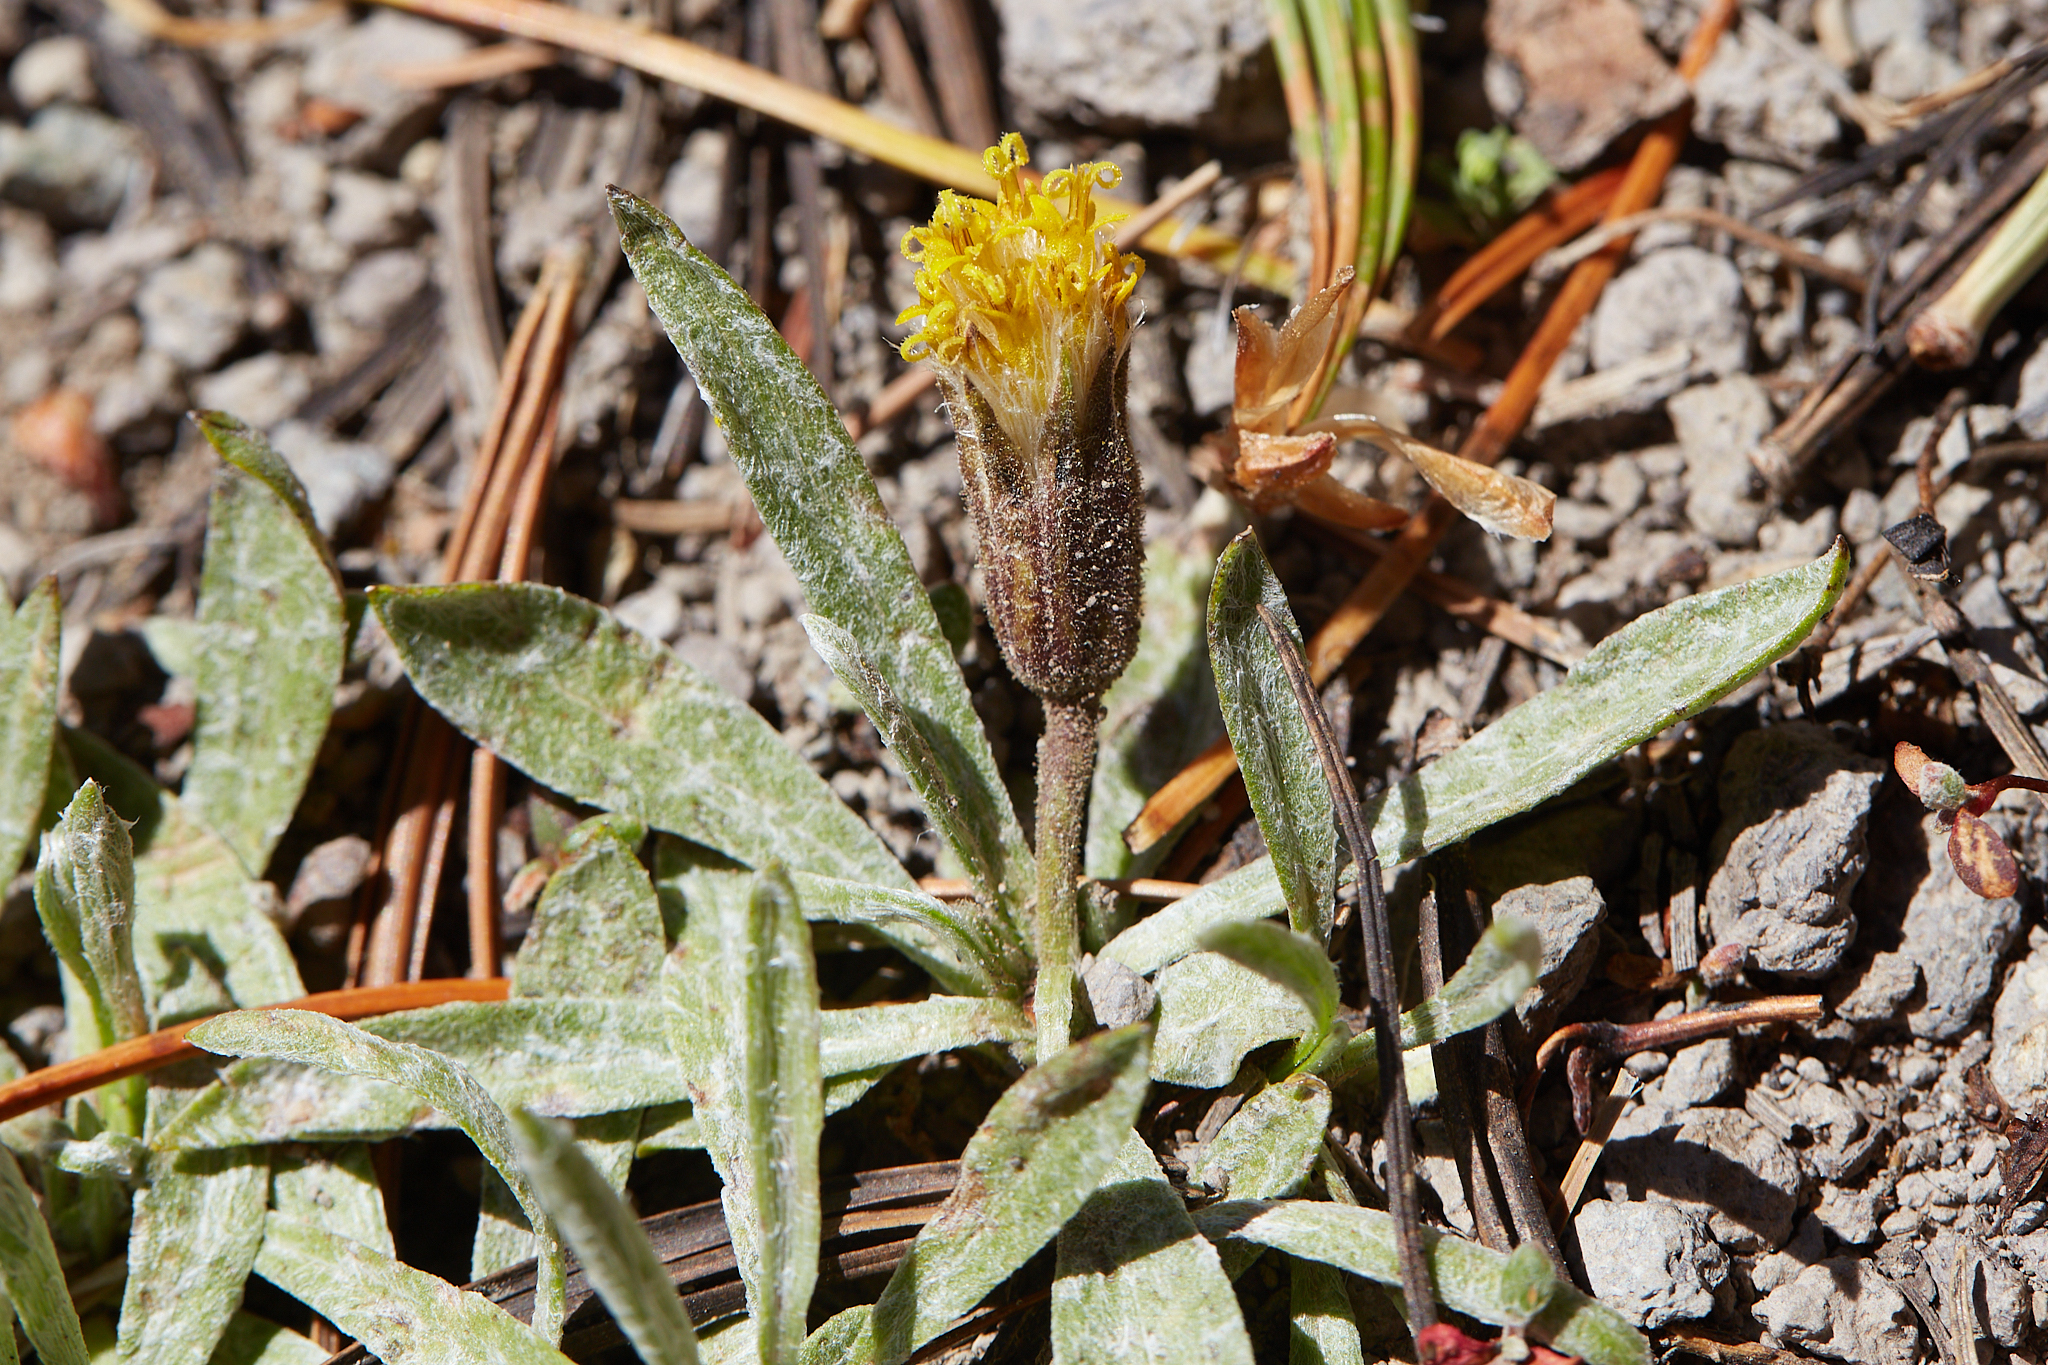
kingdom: Plantae
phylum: Tracheophyta
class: Magnoliopsida
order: Asterales
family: Asteraceae
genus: Raillardella
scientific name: Raillardella argentea
